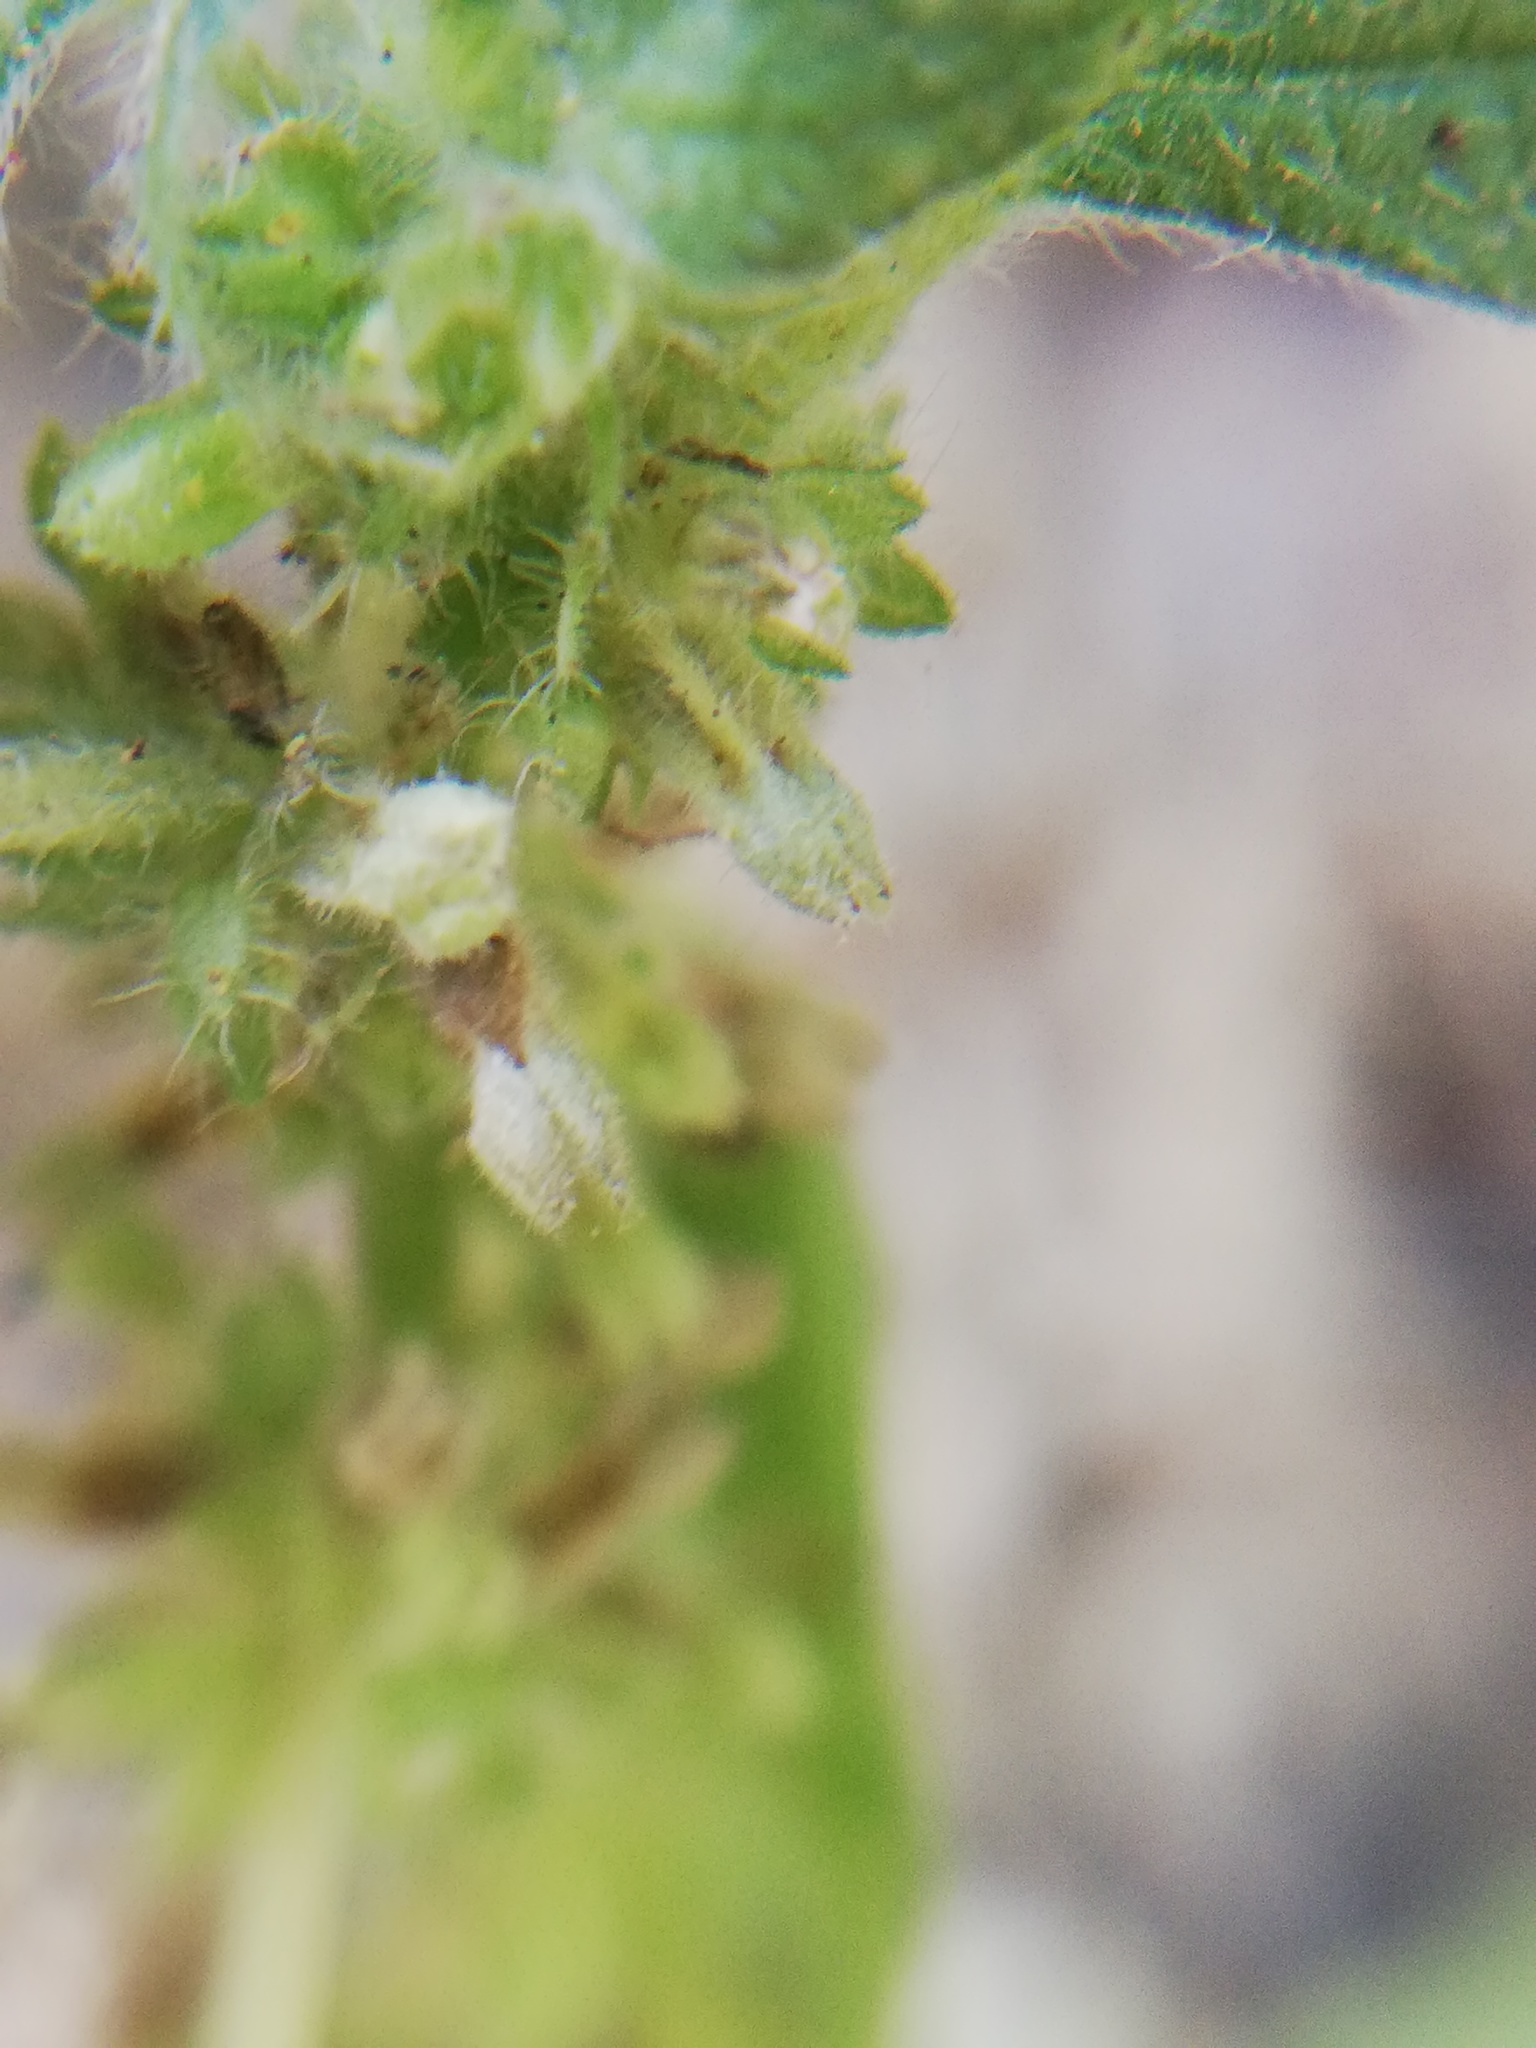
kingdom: Plantae
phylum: Tracheophyta
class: Magnoliopsida
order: Rosales
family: Urticaceae
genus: Parietaria
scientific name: Parietaria officinalis
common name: Eastern pellitory-of-the-wall
